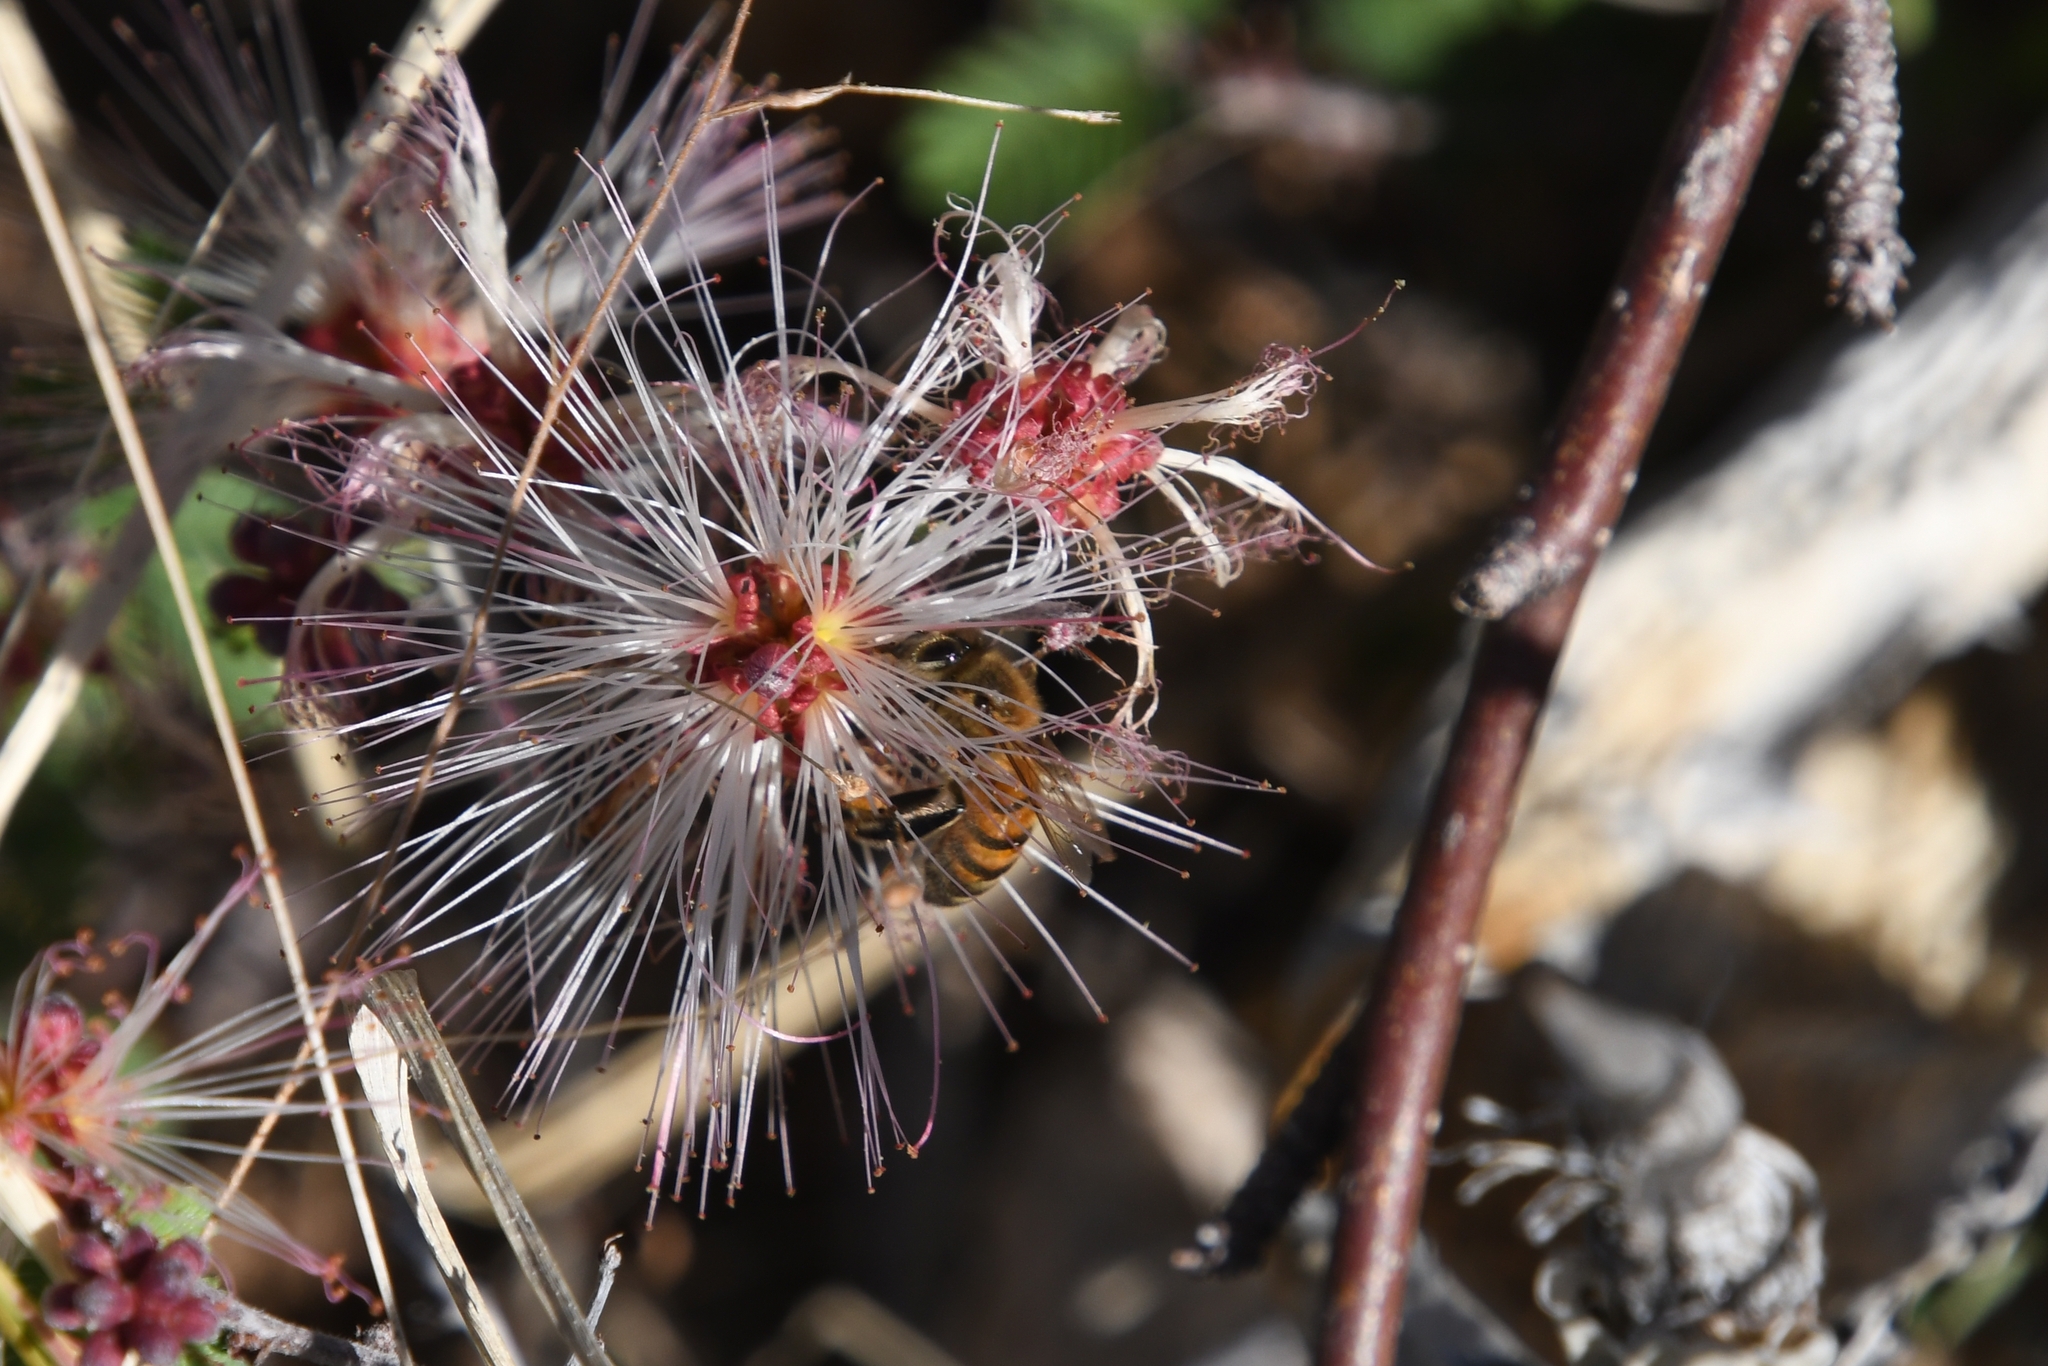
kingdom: Animalia
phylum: Arthropoda
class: Insecta
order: Hymenoptera
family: Apidae
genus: Apis
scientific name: Apis mellifera
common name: Honey bee
